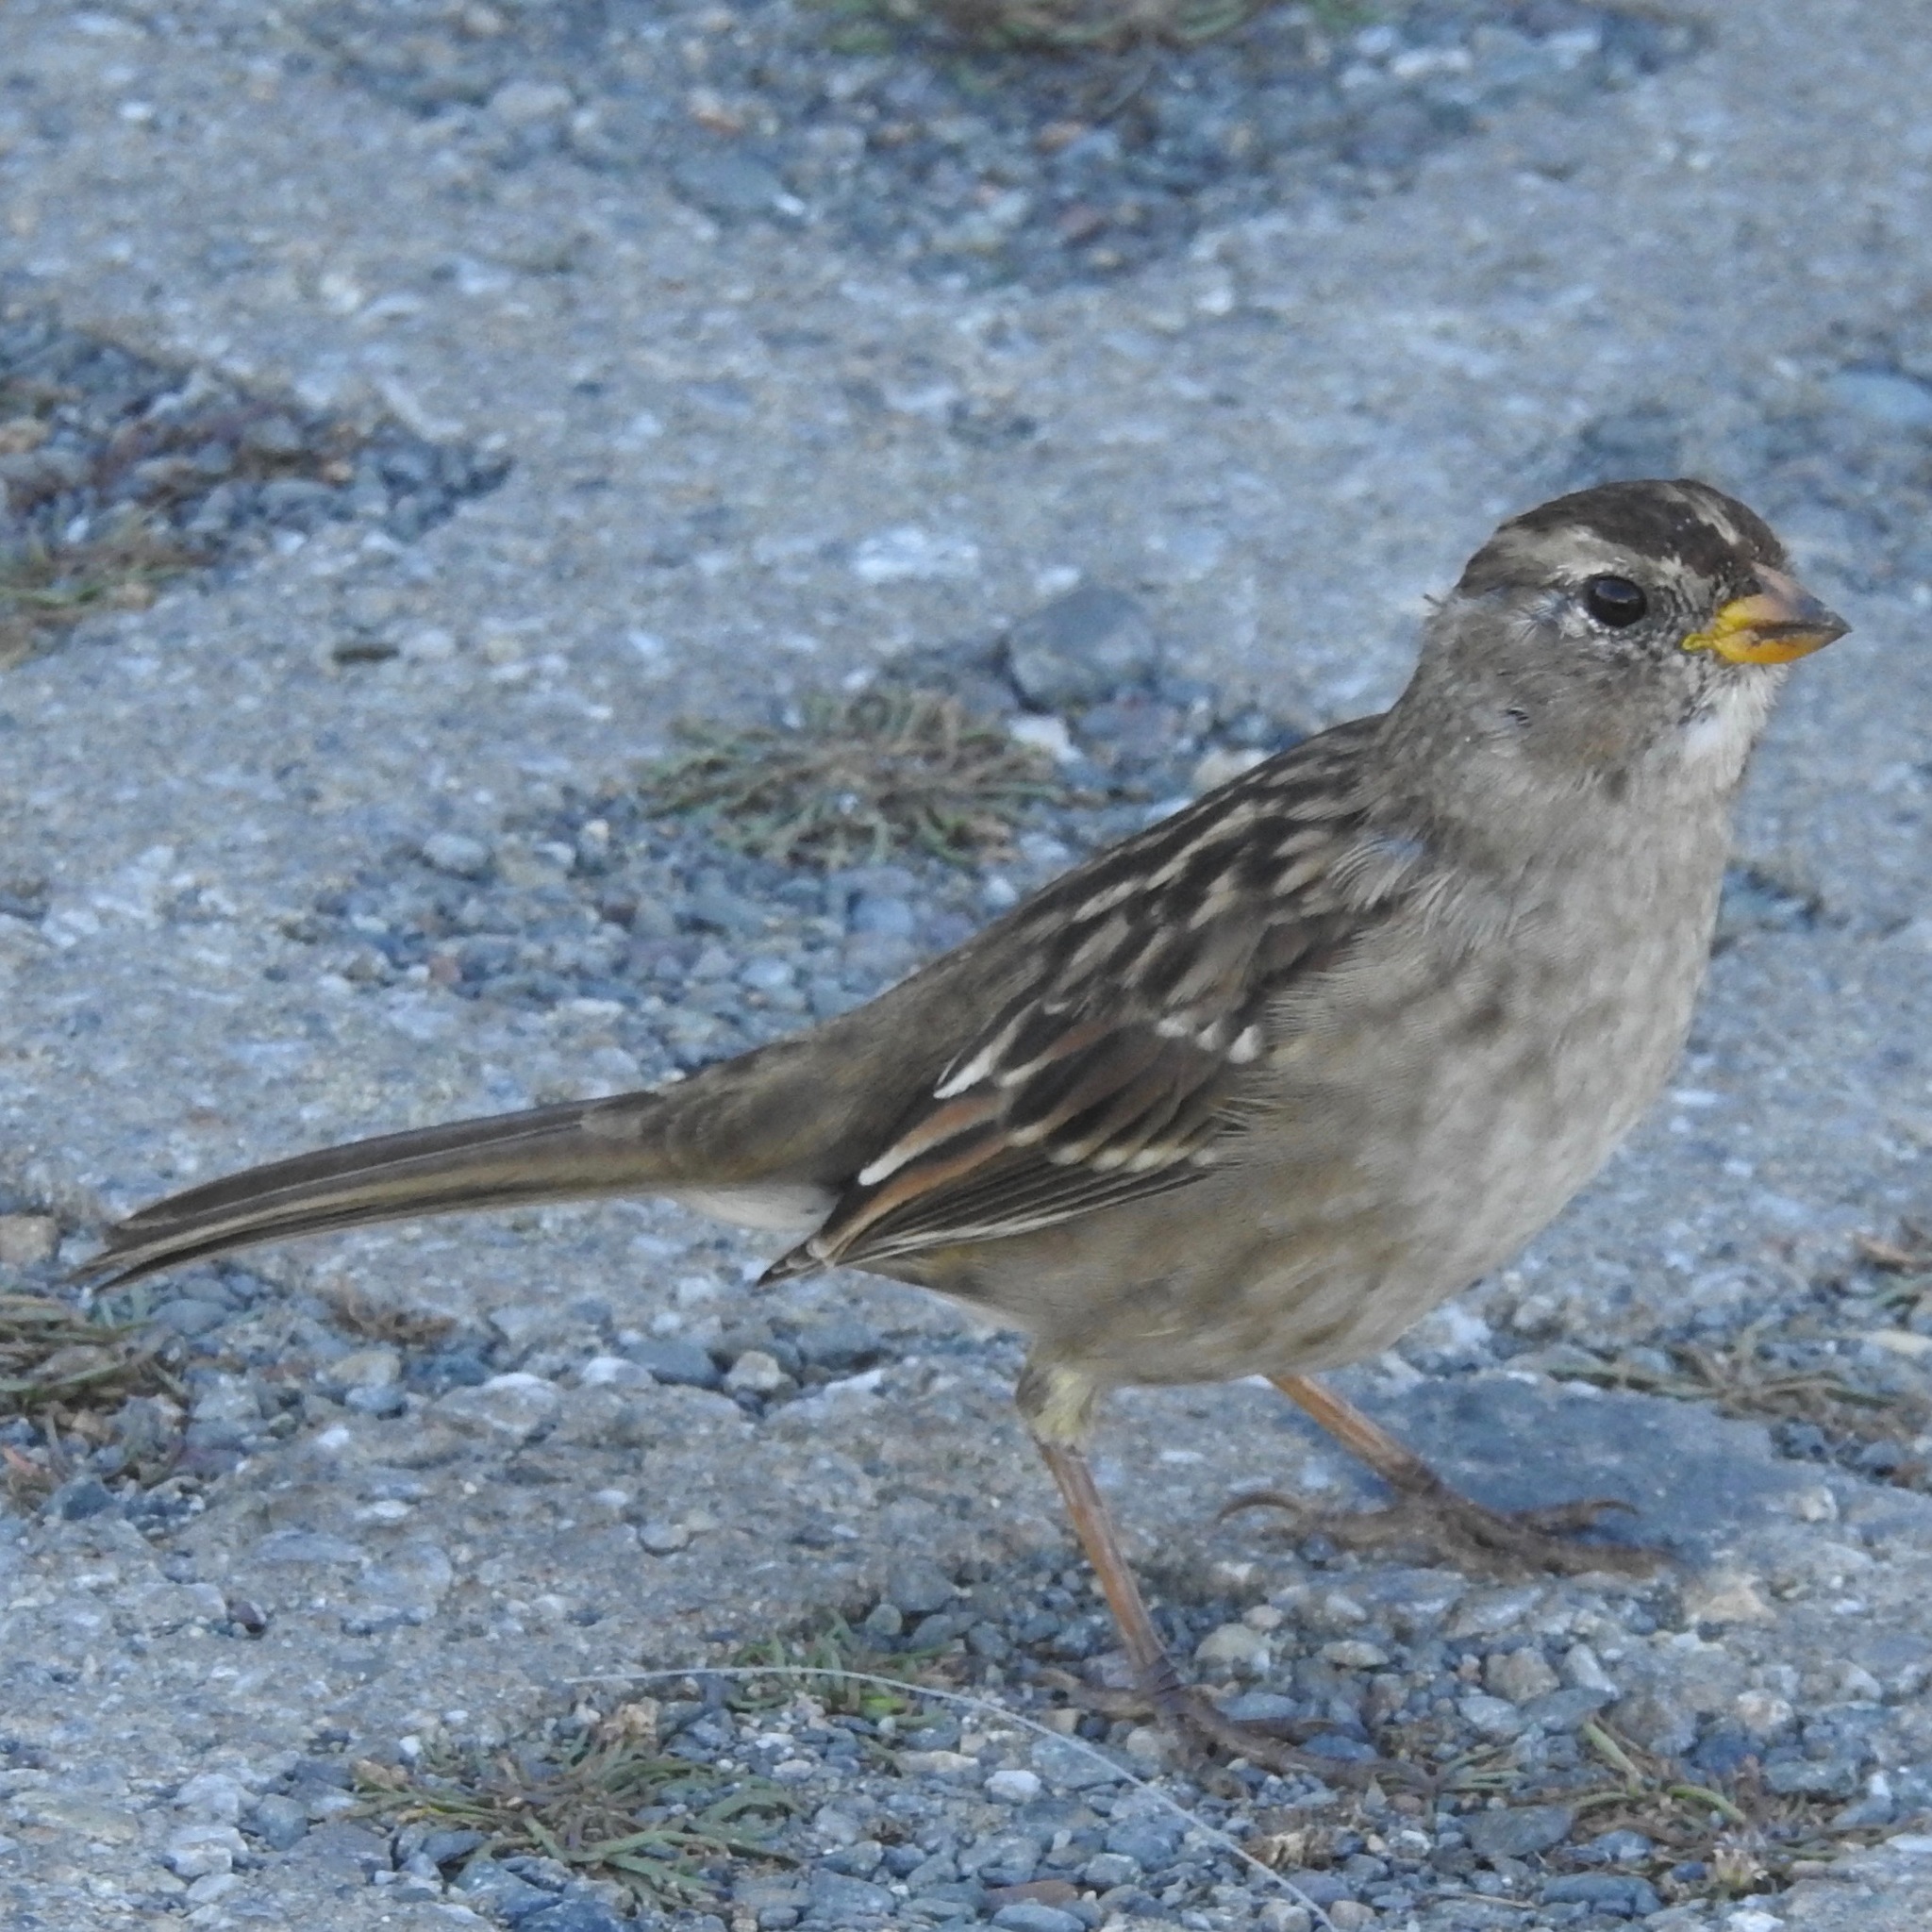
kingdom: Animalia
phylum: Chordata
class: Aves
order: Passeriformes
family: Passerellidae
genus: Zonotrichia
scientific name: Zonotrichia leucophrys
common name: White-crowned sparrow
